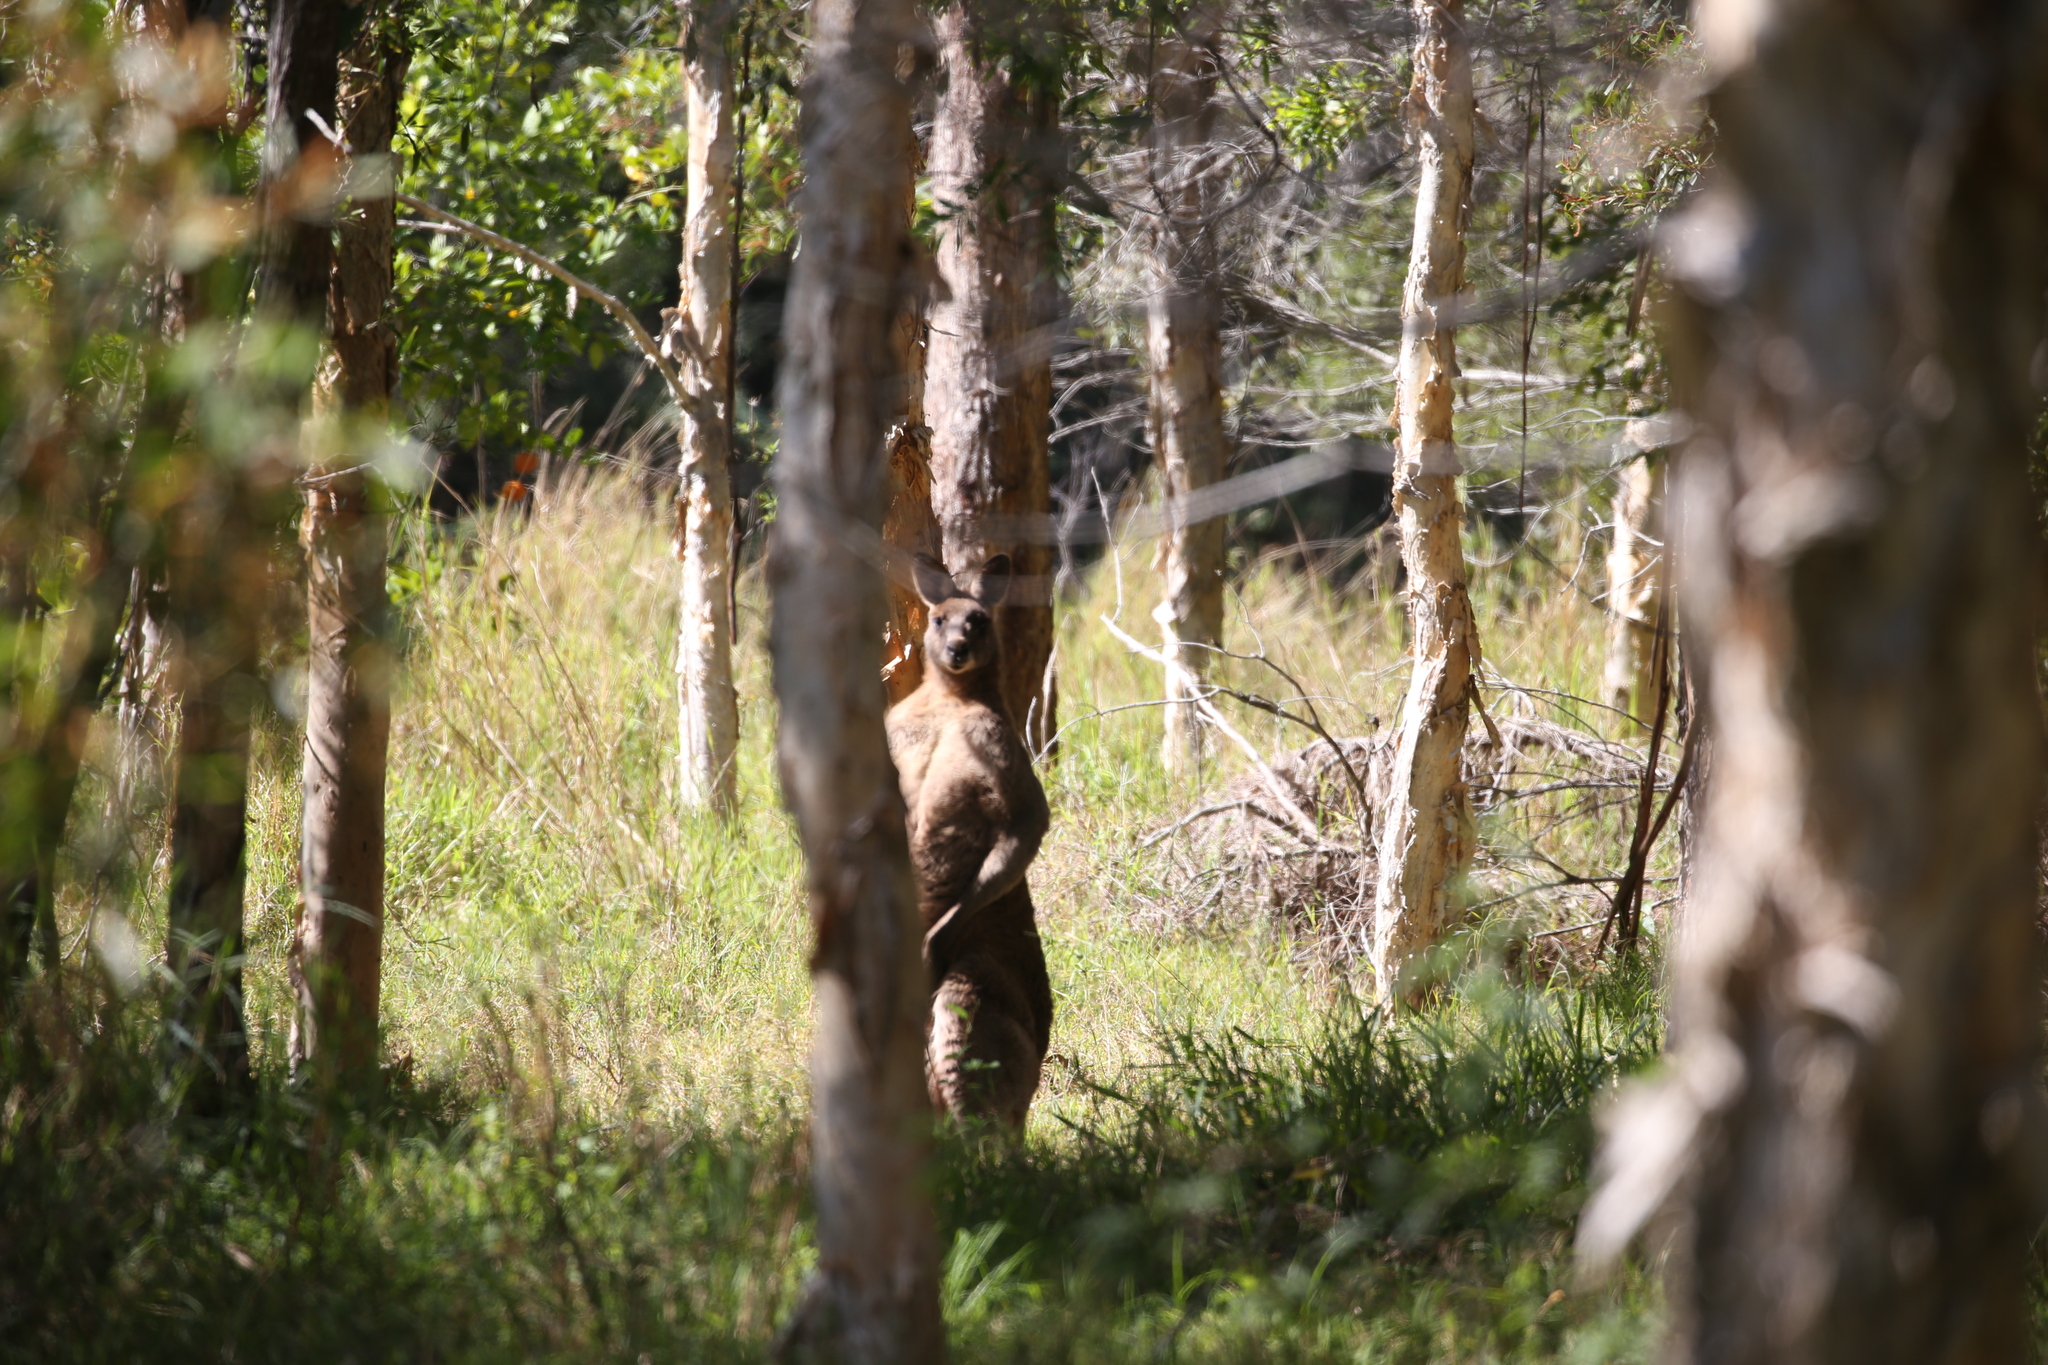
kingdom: Animalia
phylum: Chordata
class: Mammalia
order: Diprotodontia
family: Macropodidae
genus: Macropus
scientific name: Macropus giganteus
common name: Eastern grey kangaroo
